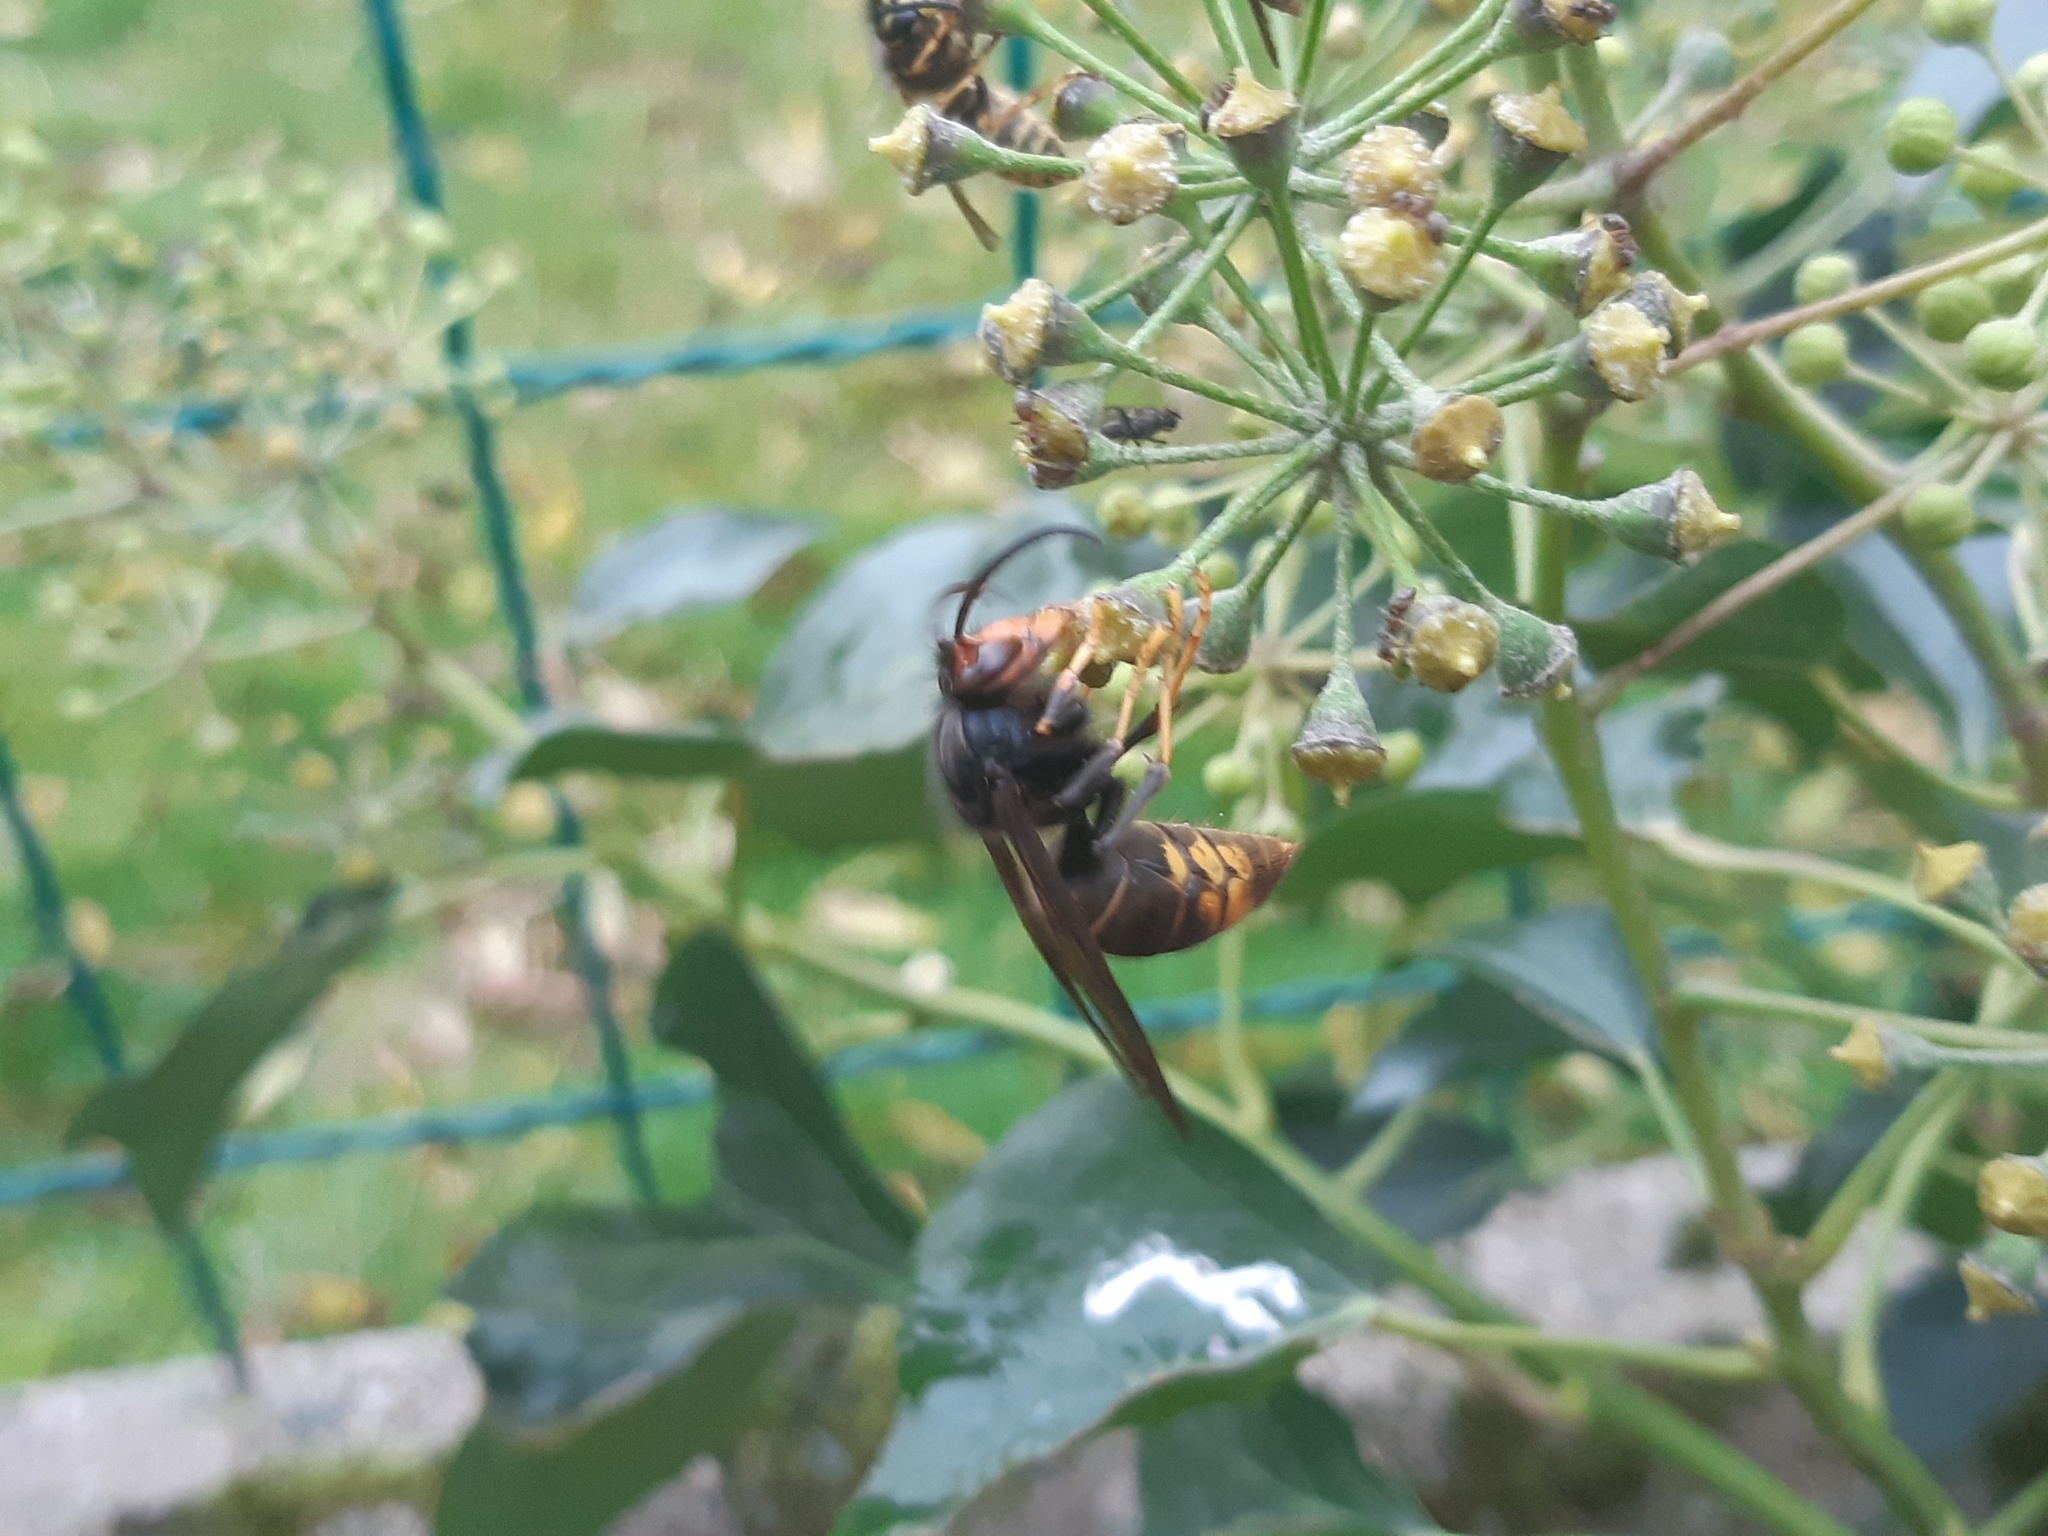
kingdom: Animalia
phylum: Arthropoda
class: Insecta
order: Hymenoptera
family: Vespidae
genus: Vespa
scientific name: Vespa velutina
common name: Asian hornet
